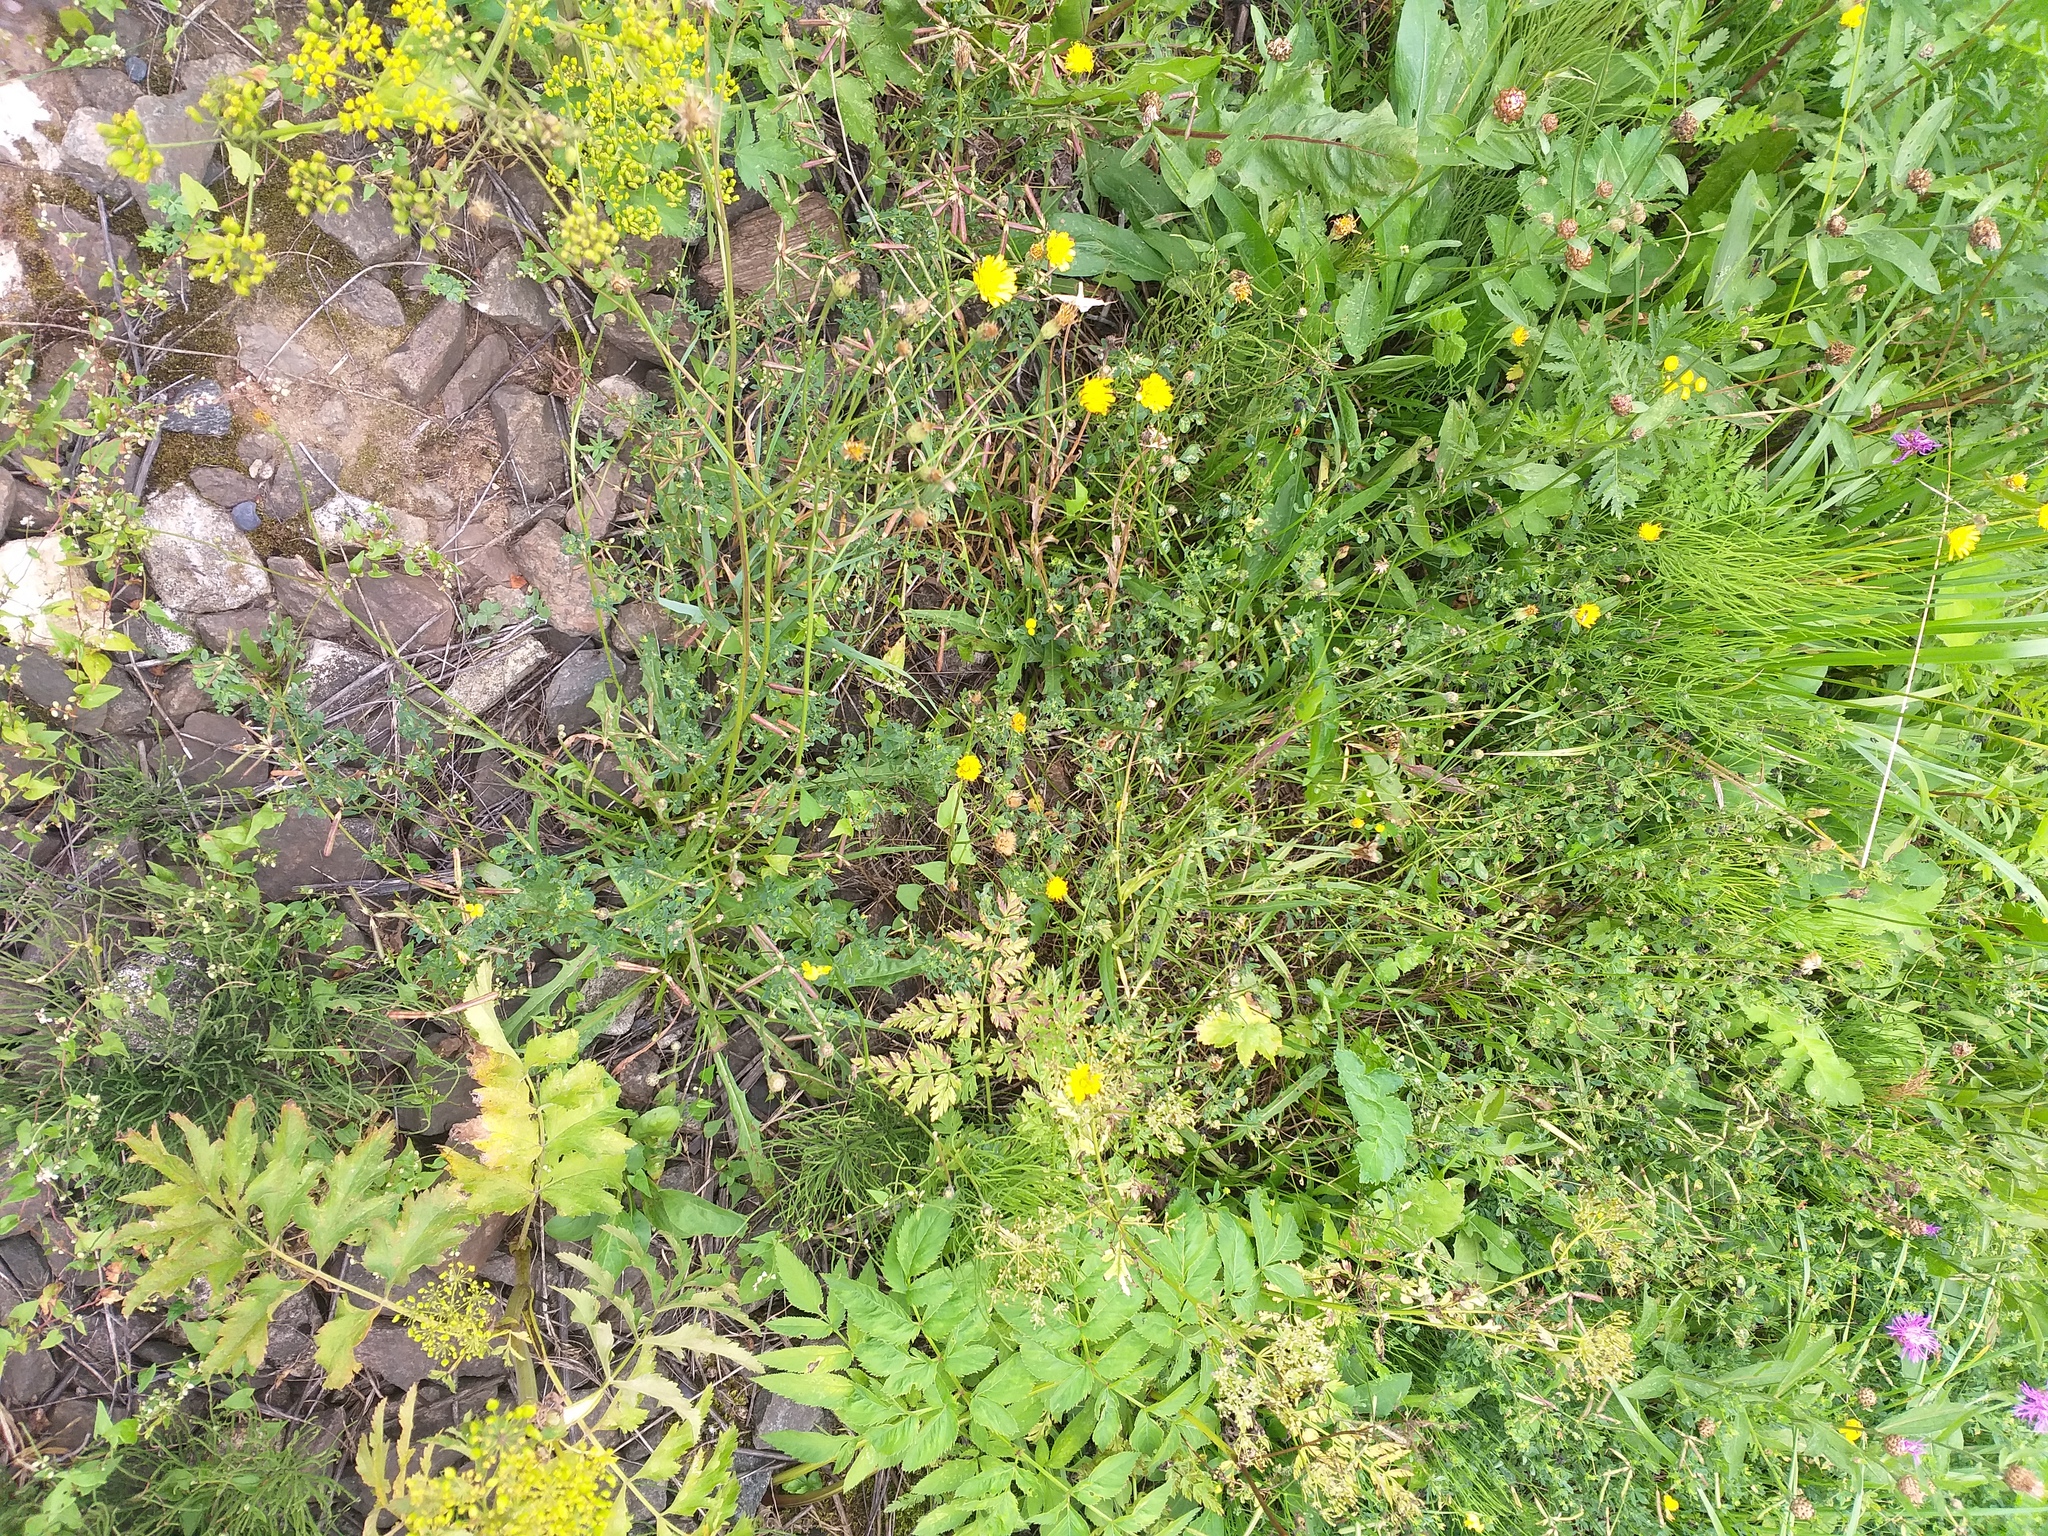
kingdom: Plantae
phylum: Tracheophyta
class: Magnoliopsida
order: Asterales
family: Asteraceae
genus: Scorzoneroides
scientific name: Scorzoneroides autumnalis
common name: Autumn hawkbit
